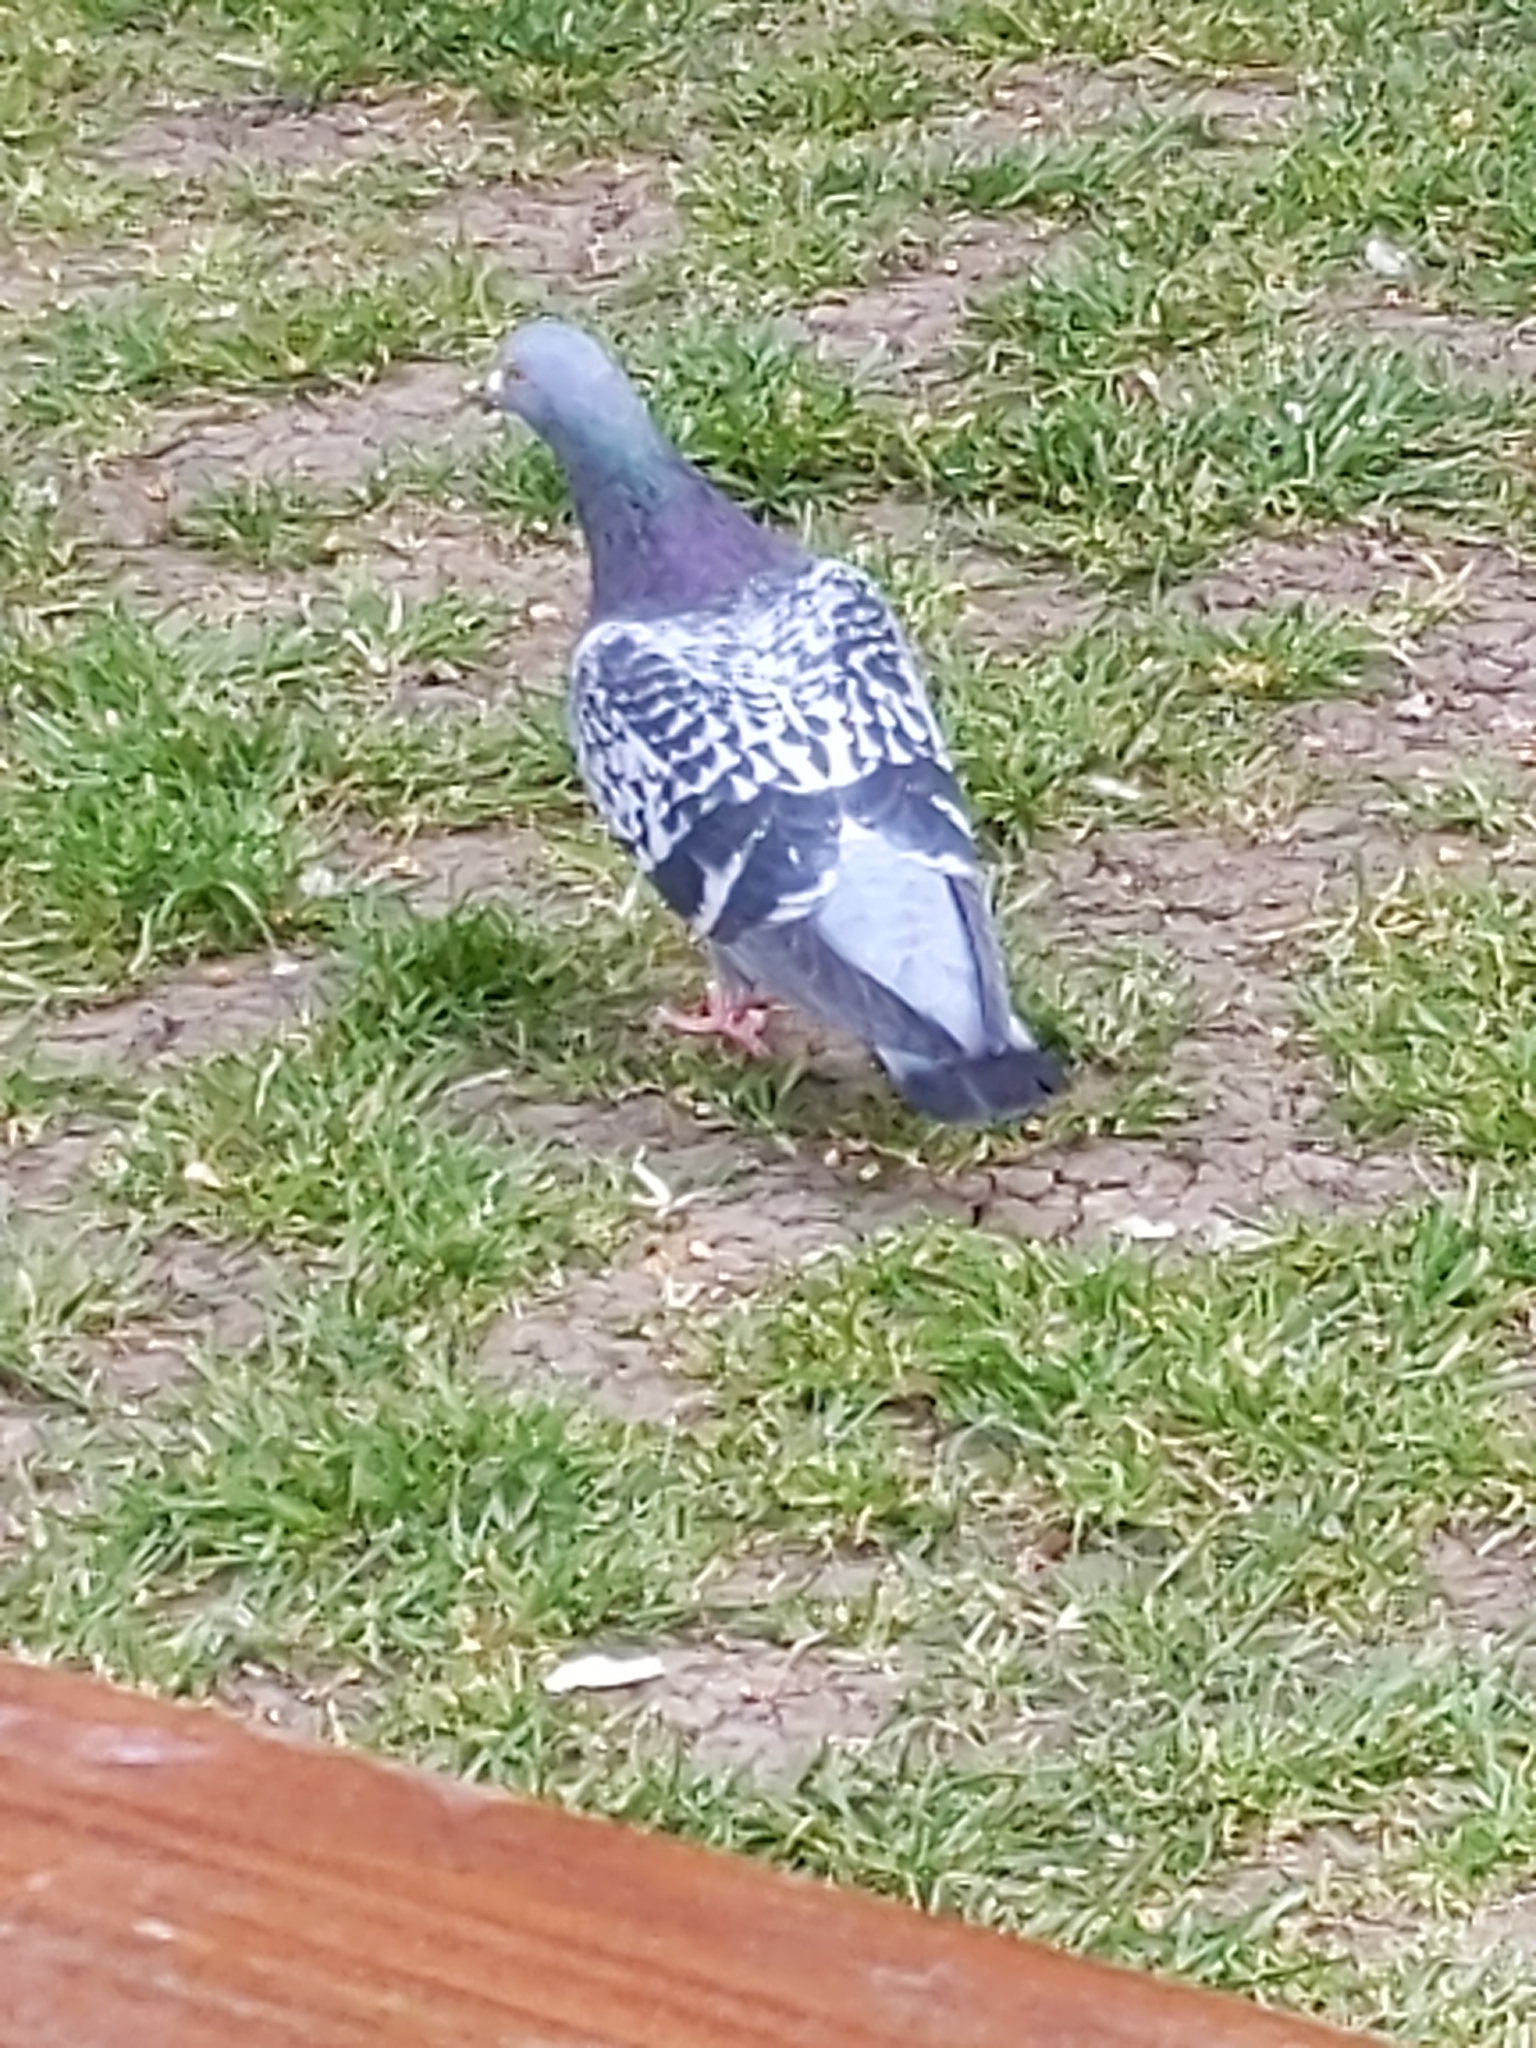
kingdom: Animalia
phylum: Chordata
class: Aves
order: Columbiformes
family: Columbidae
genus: Columba
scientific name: Columba livia
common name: Rock pigeon
